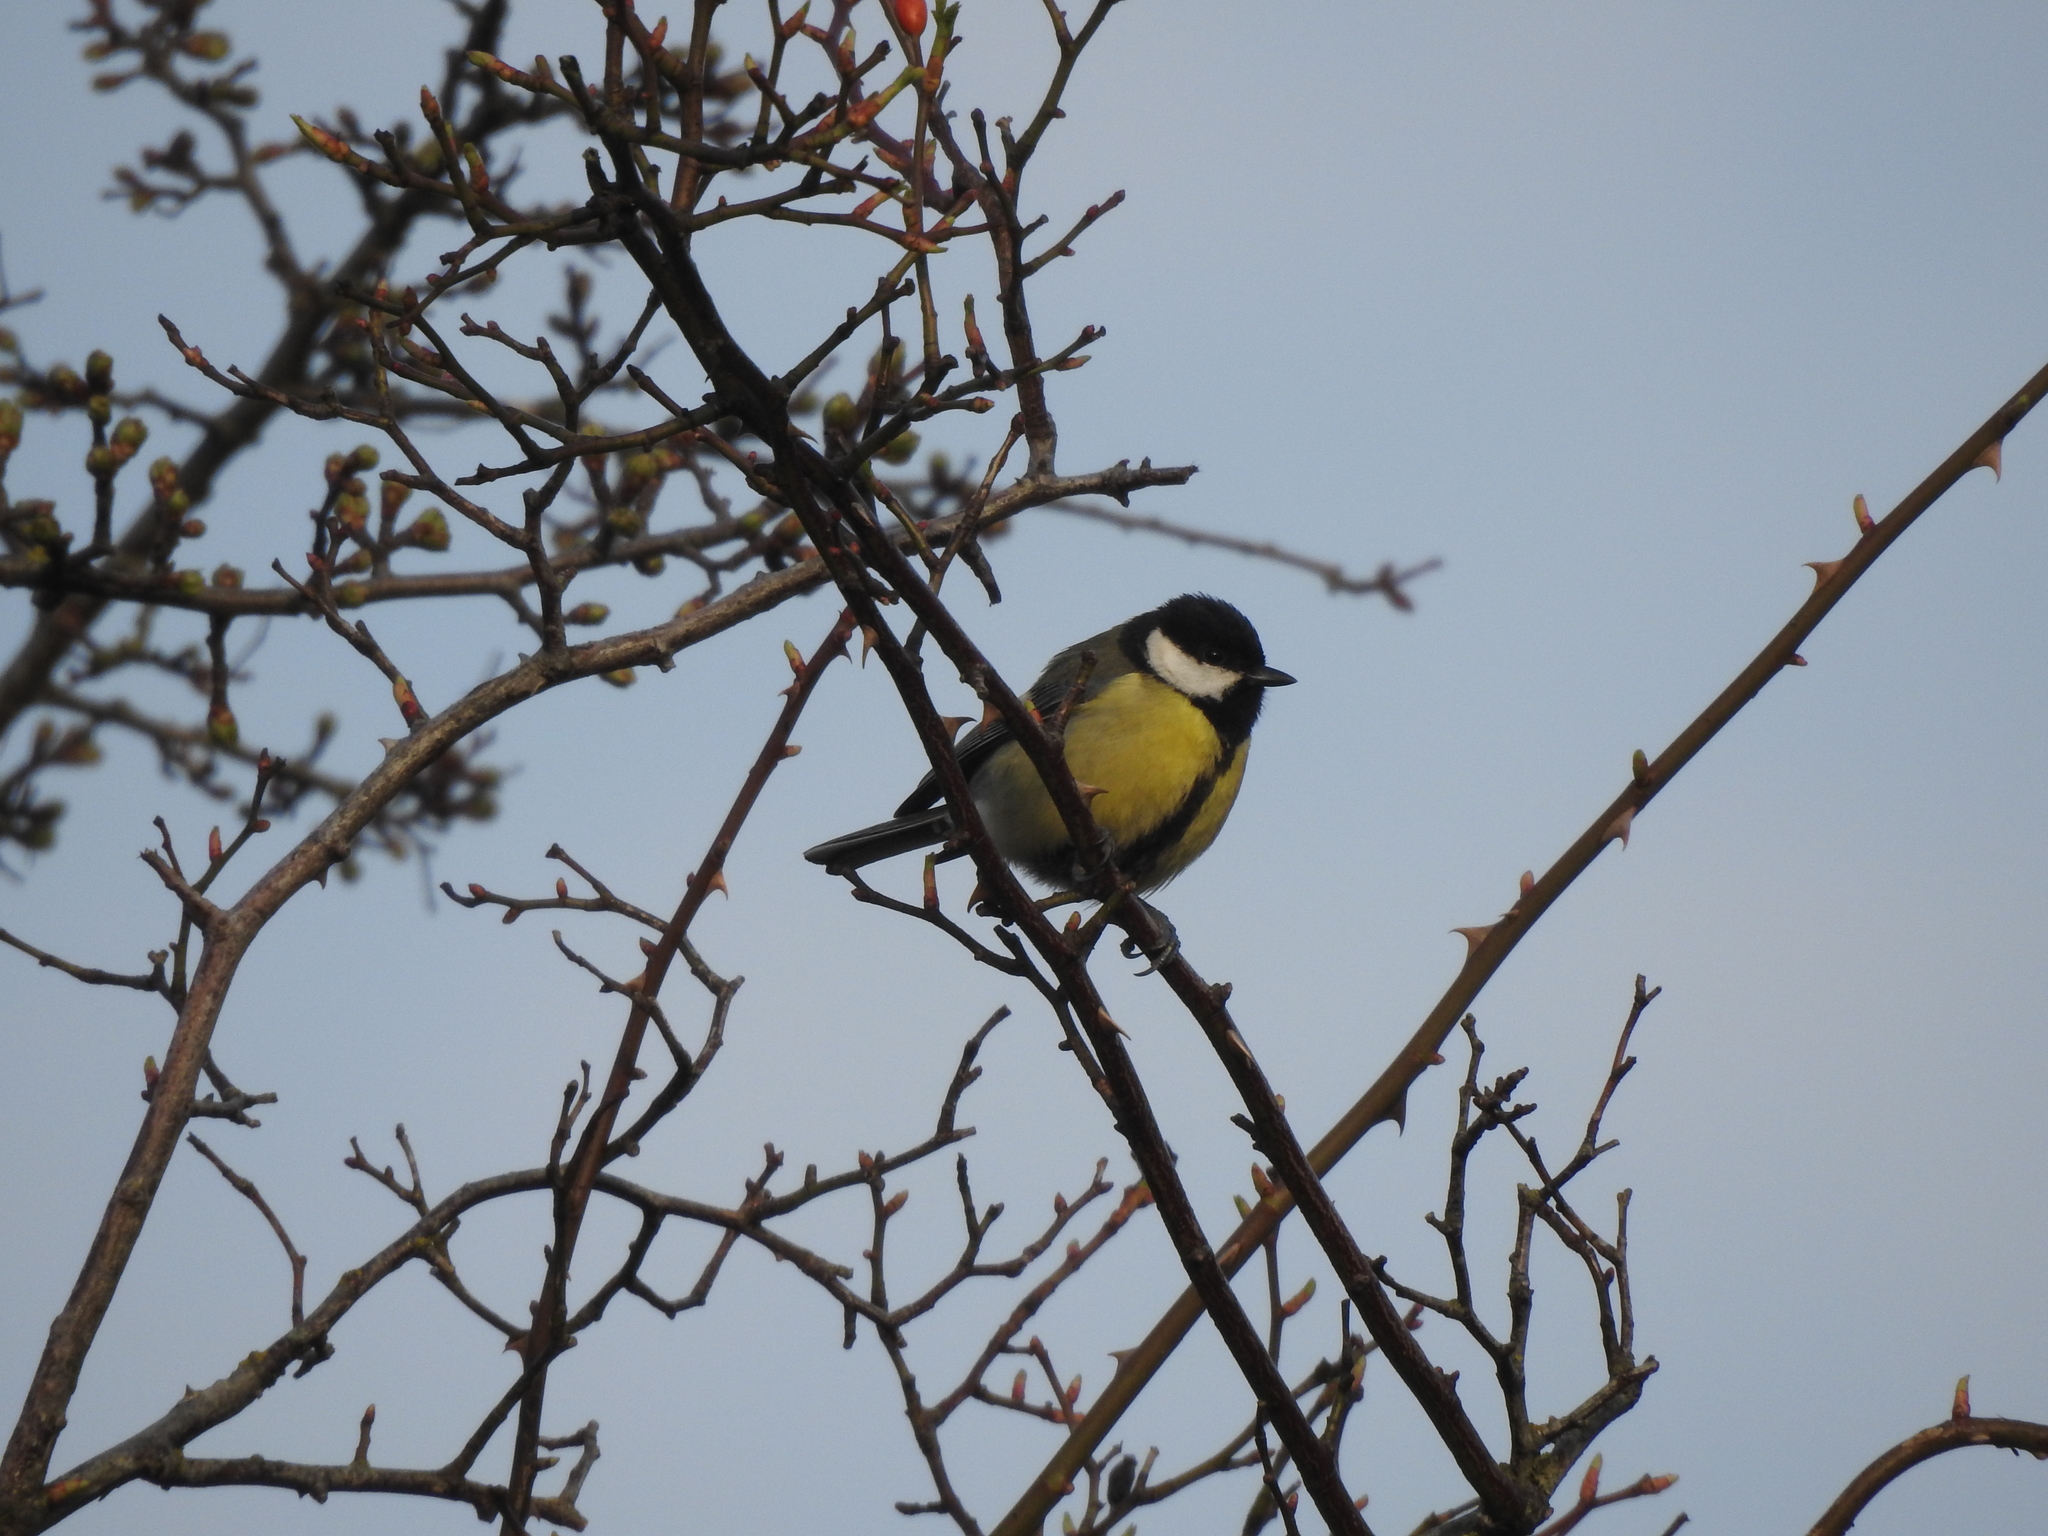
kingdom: Animalia
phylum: Chordata
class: Aves
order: Passeriformes
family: Paridae
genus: Parus
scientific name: Parus major
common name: Great tit
